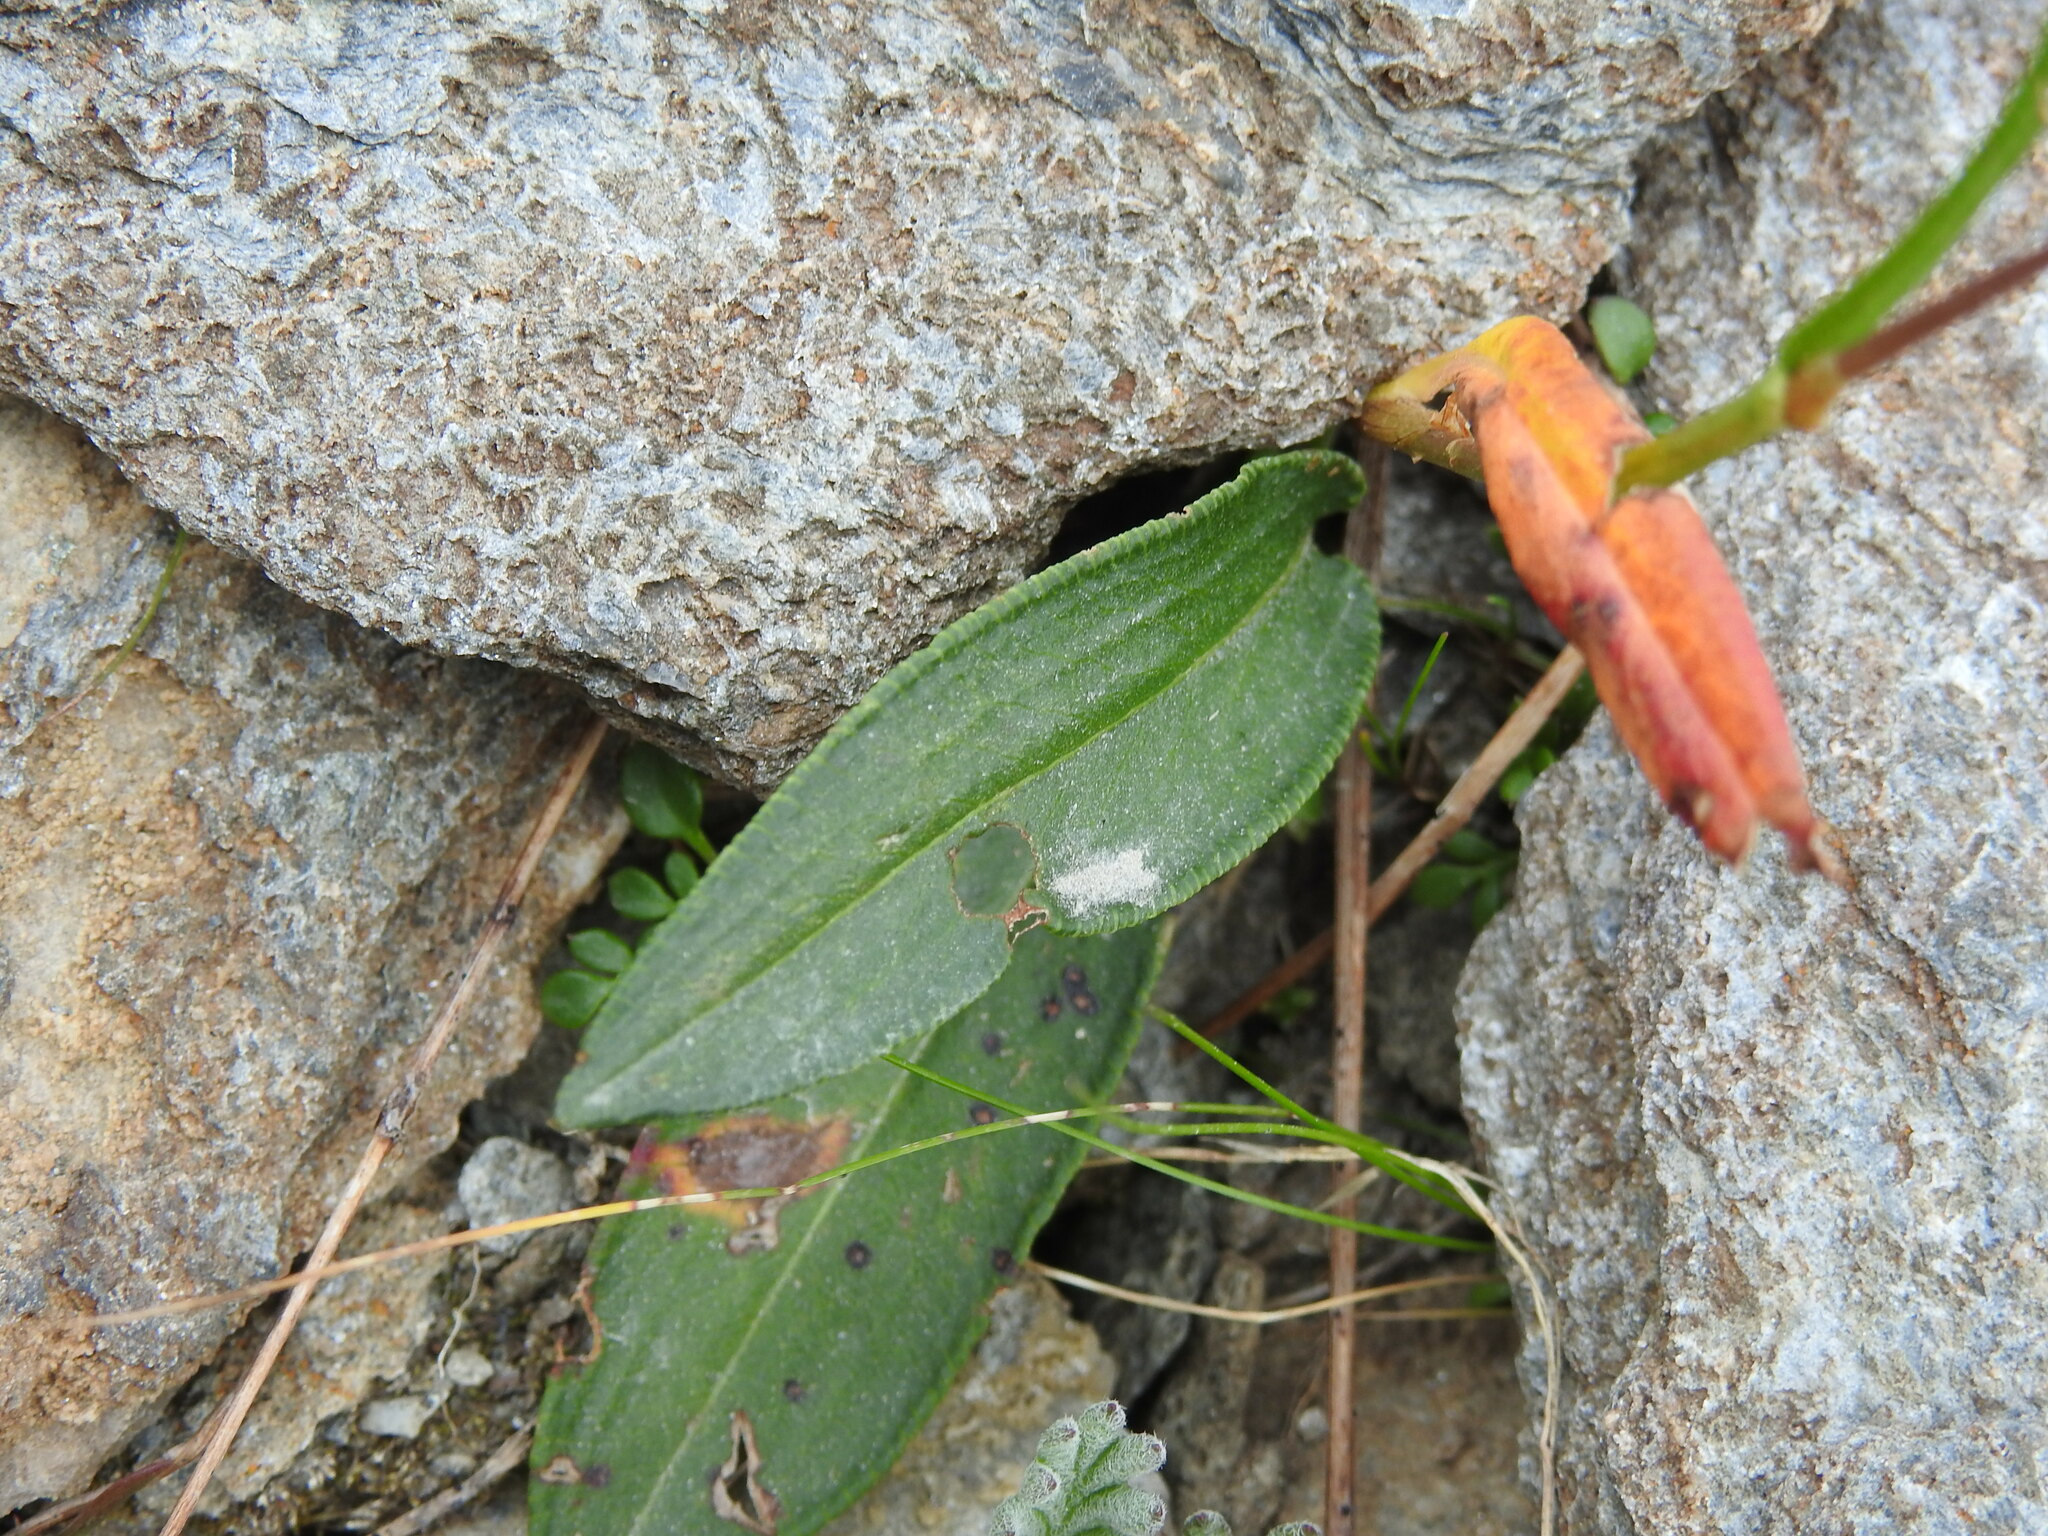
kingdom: Plantae
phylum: Tracheophyta
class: Magnoliopsida
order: Caryophyllales
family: Polygonaceae
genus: Bistorta
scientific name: Bistorta vivipara
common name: Alpine bistort
